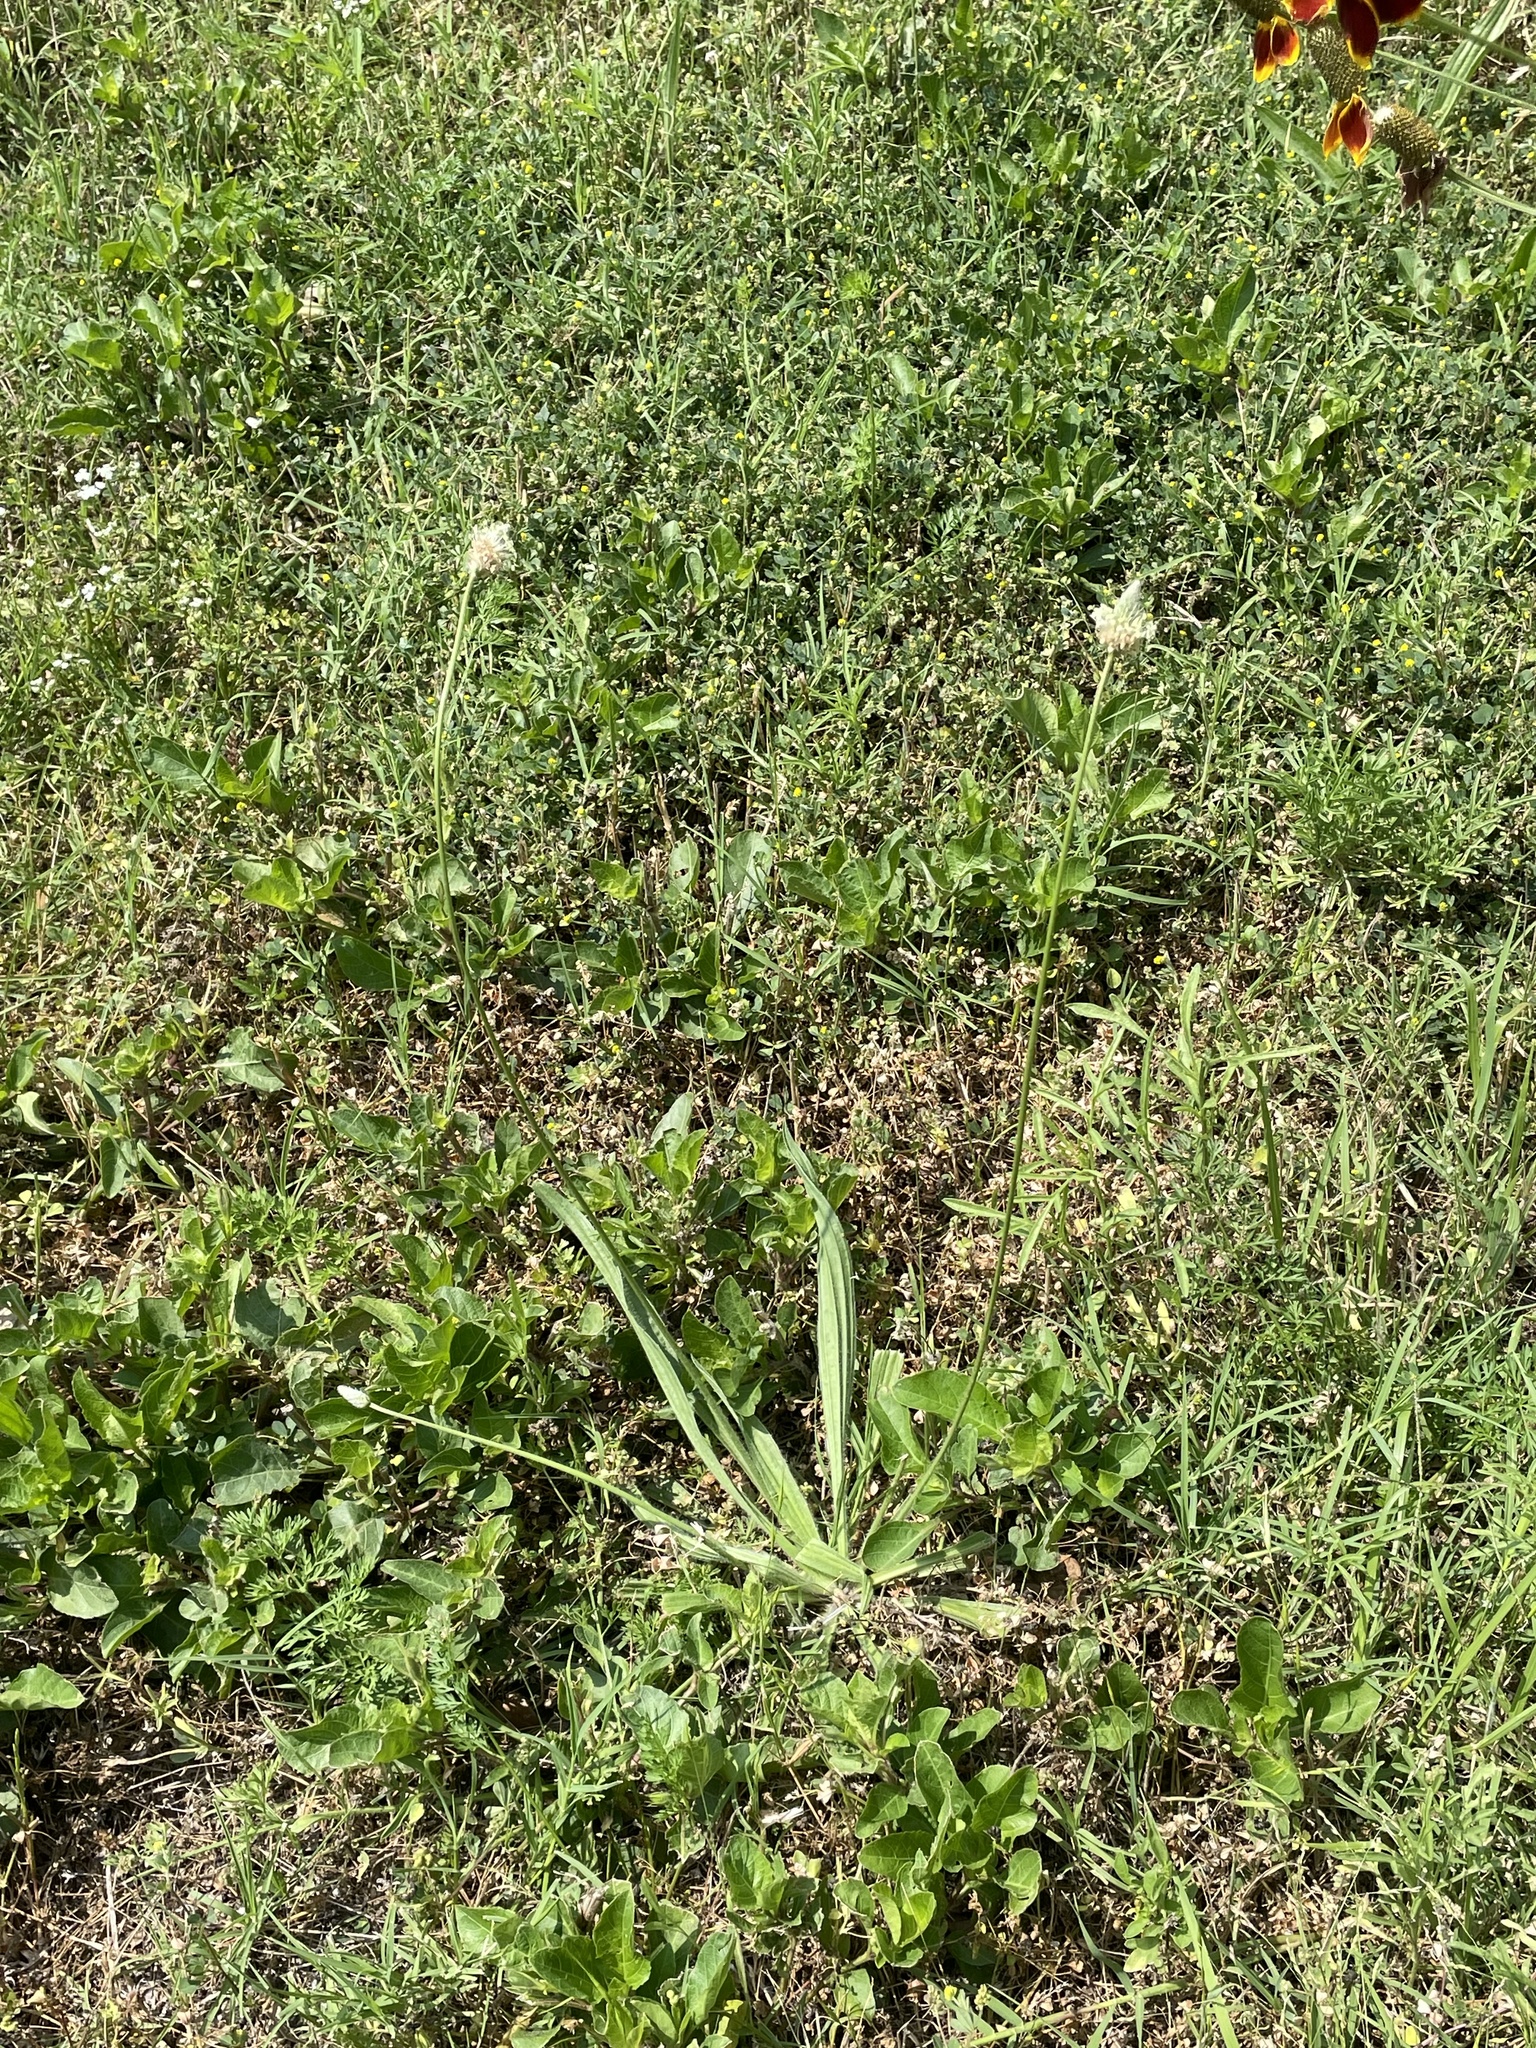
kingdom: Plantae
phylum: Tracheophyta
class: Magnoliopsida
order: Lamiales
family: Plantaginaceae
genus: Plantago
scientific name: Plantago lanceolata
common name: Ribwort plantain
